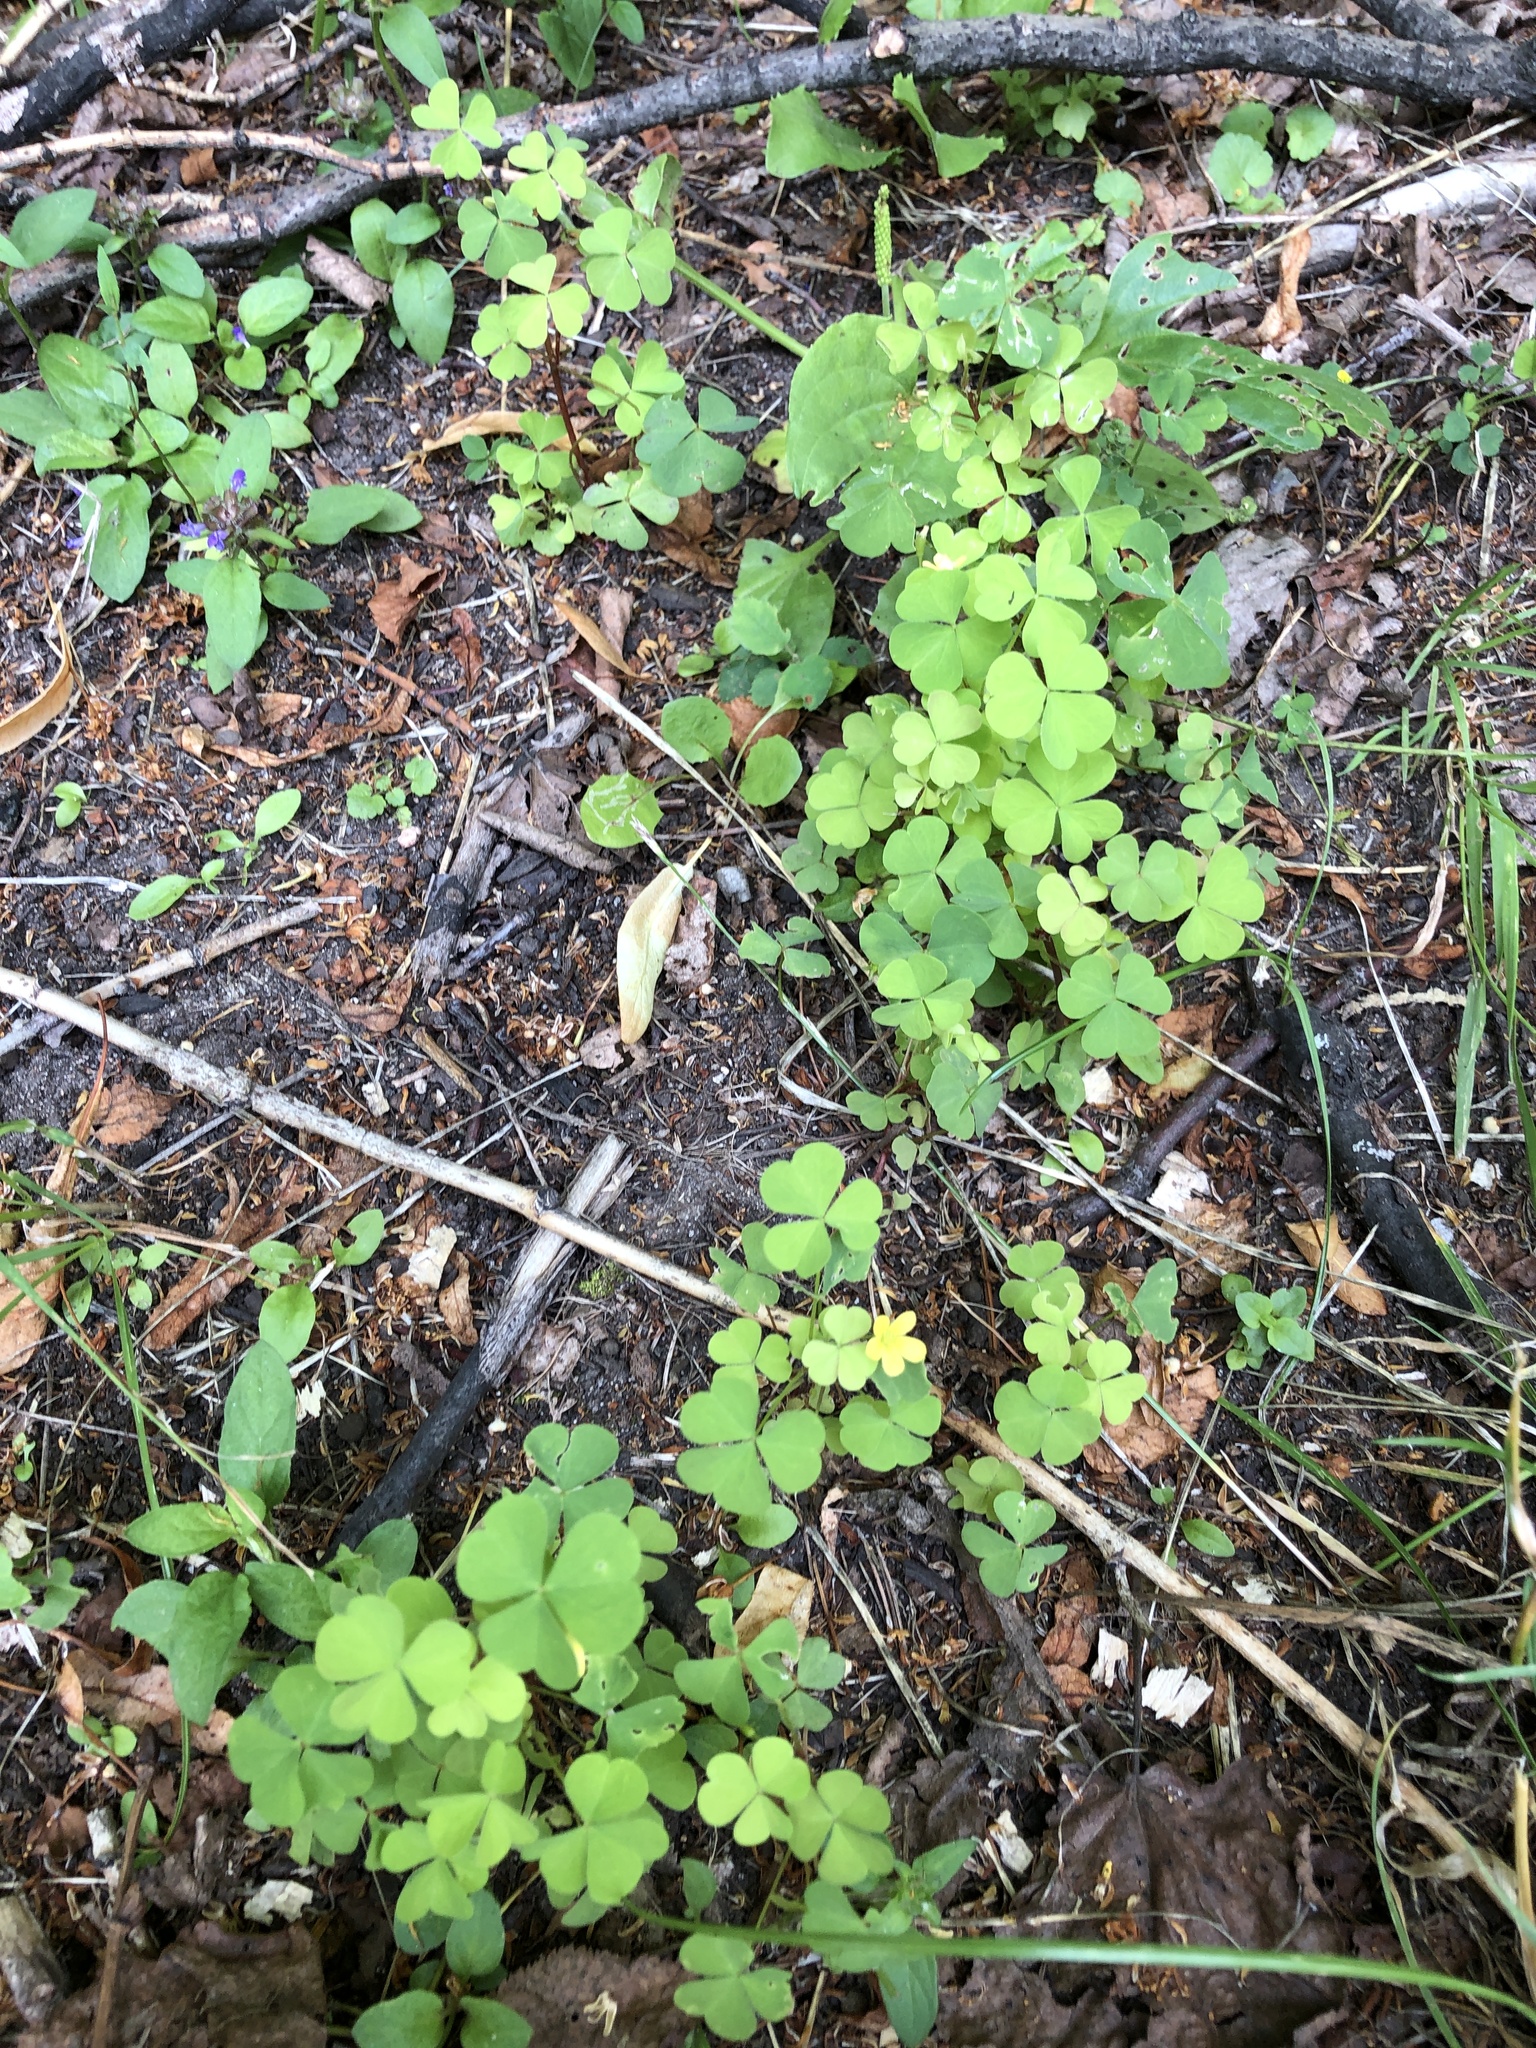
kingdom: Plantae
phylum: Tracheophyta
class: Magnoliopsida
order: Oxalidales
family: Oxalidaceae
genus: Oxalis
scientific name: Oxalis stricta
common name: Upright yellow-sorrel
